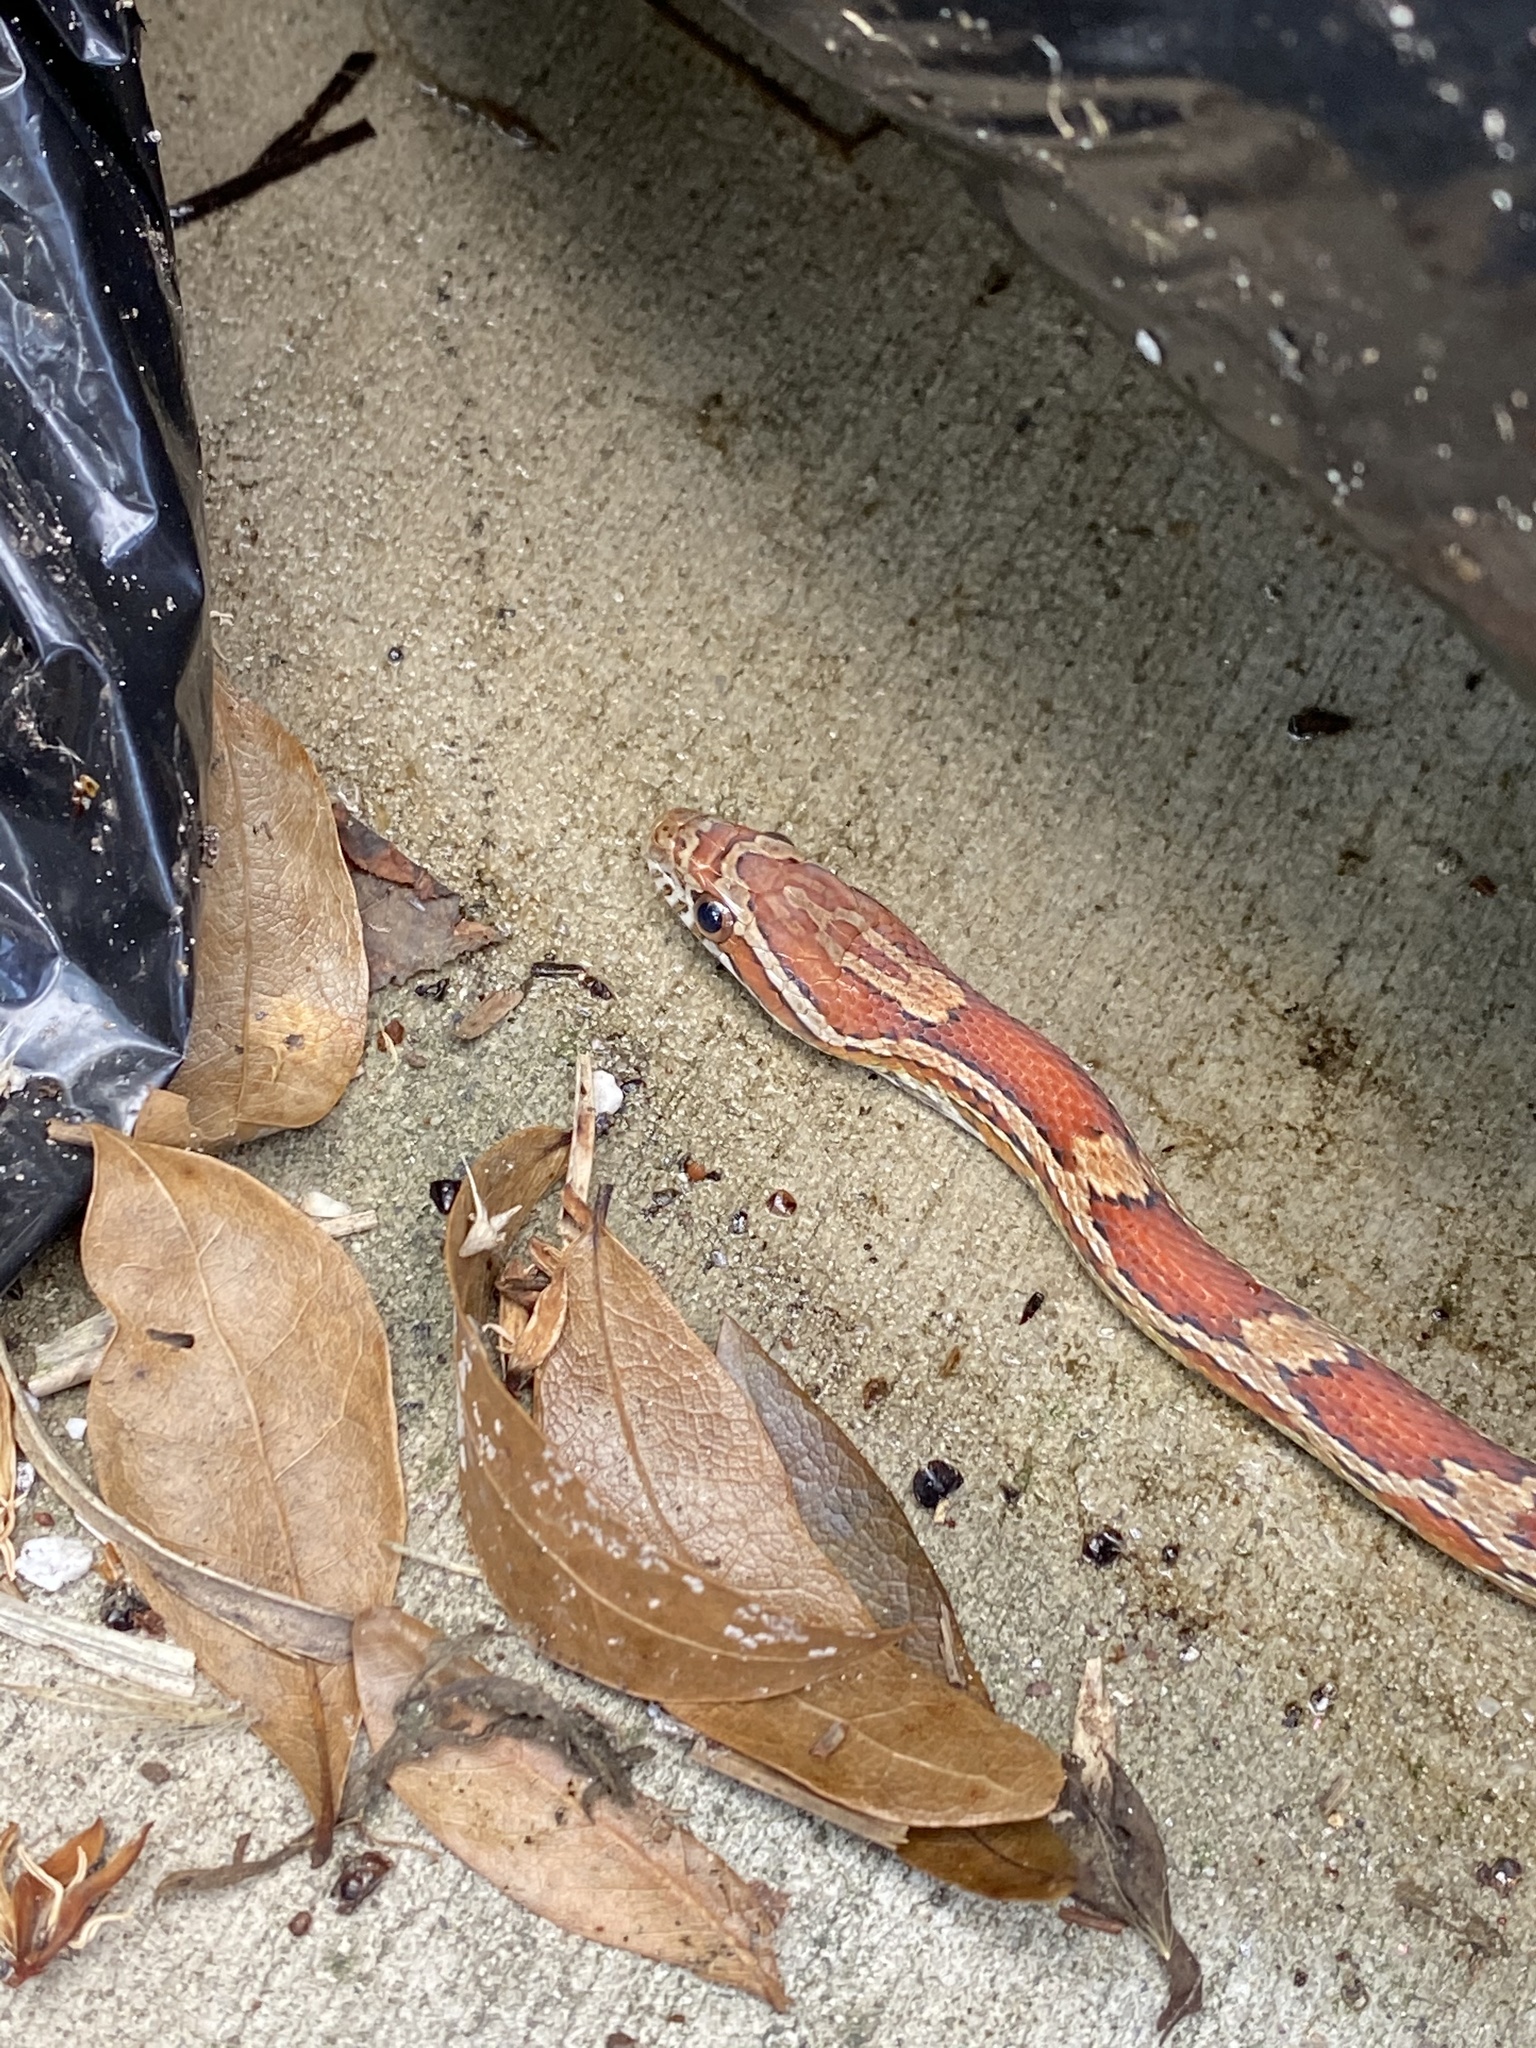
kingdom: Animalia
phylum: Chordata
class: Squamata
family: Colubridae
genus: Pantherophis
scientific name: Pantherophis guttatus
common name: Red cornsnake
